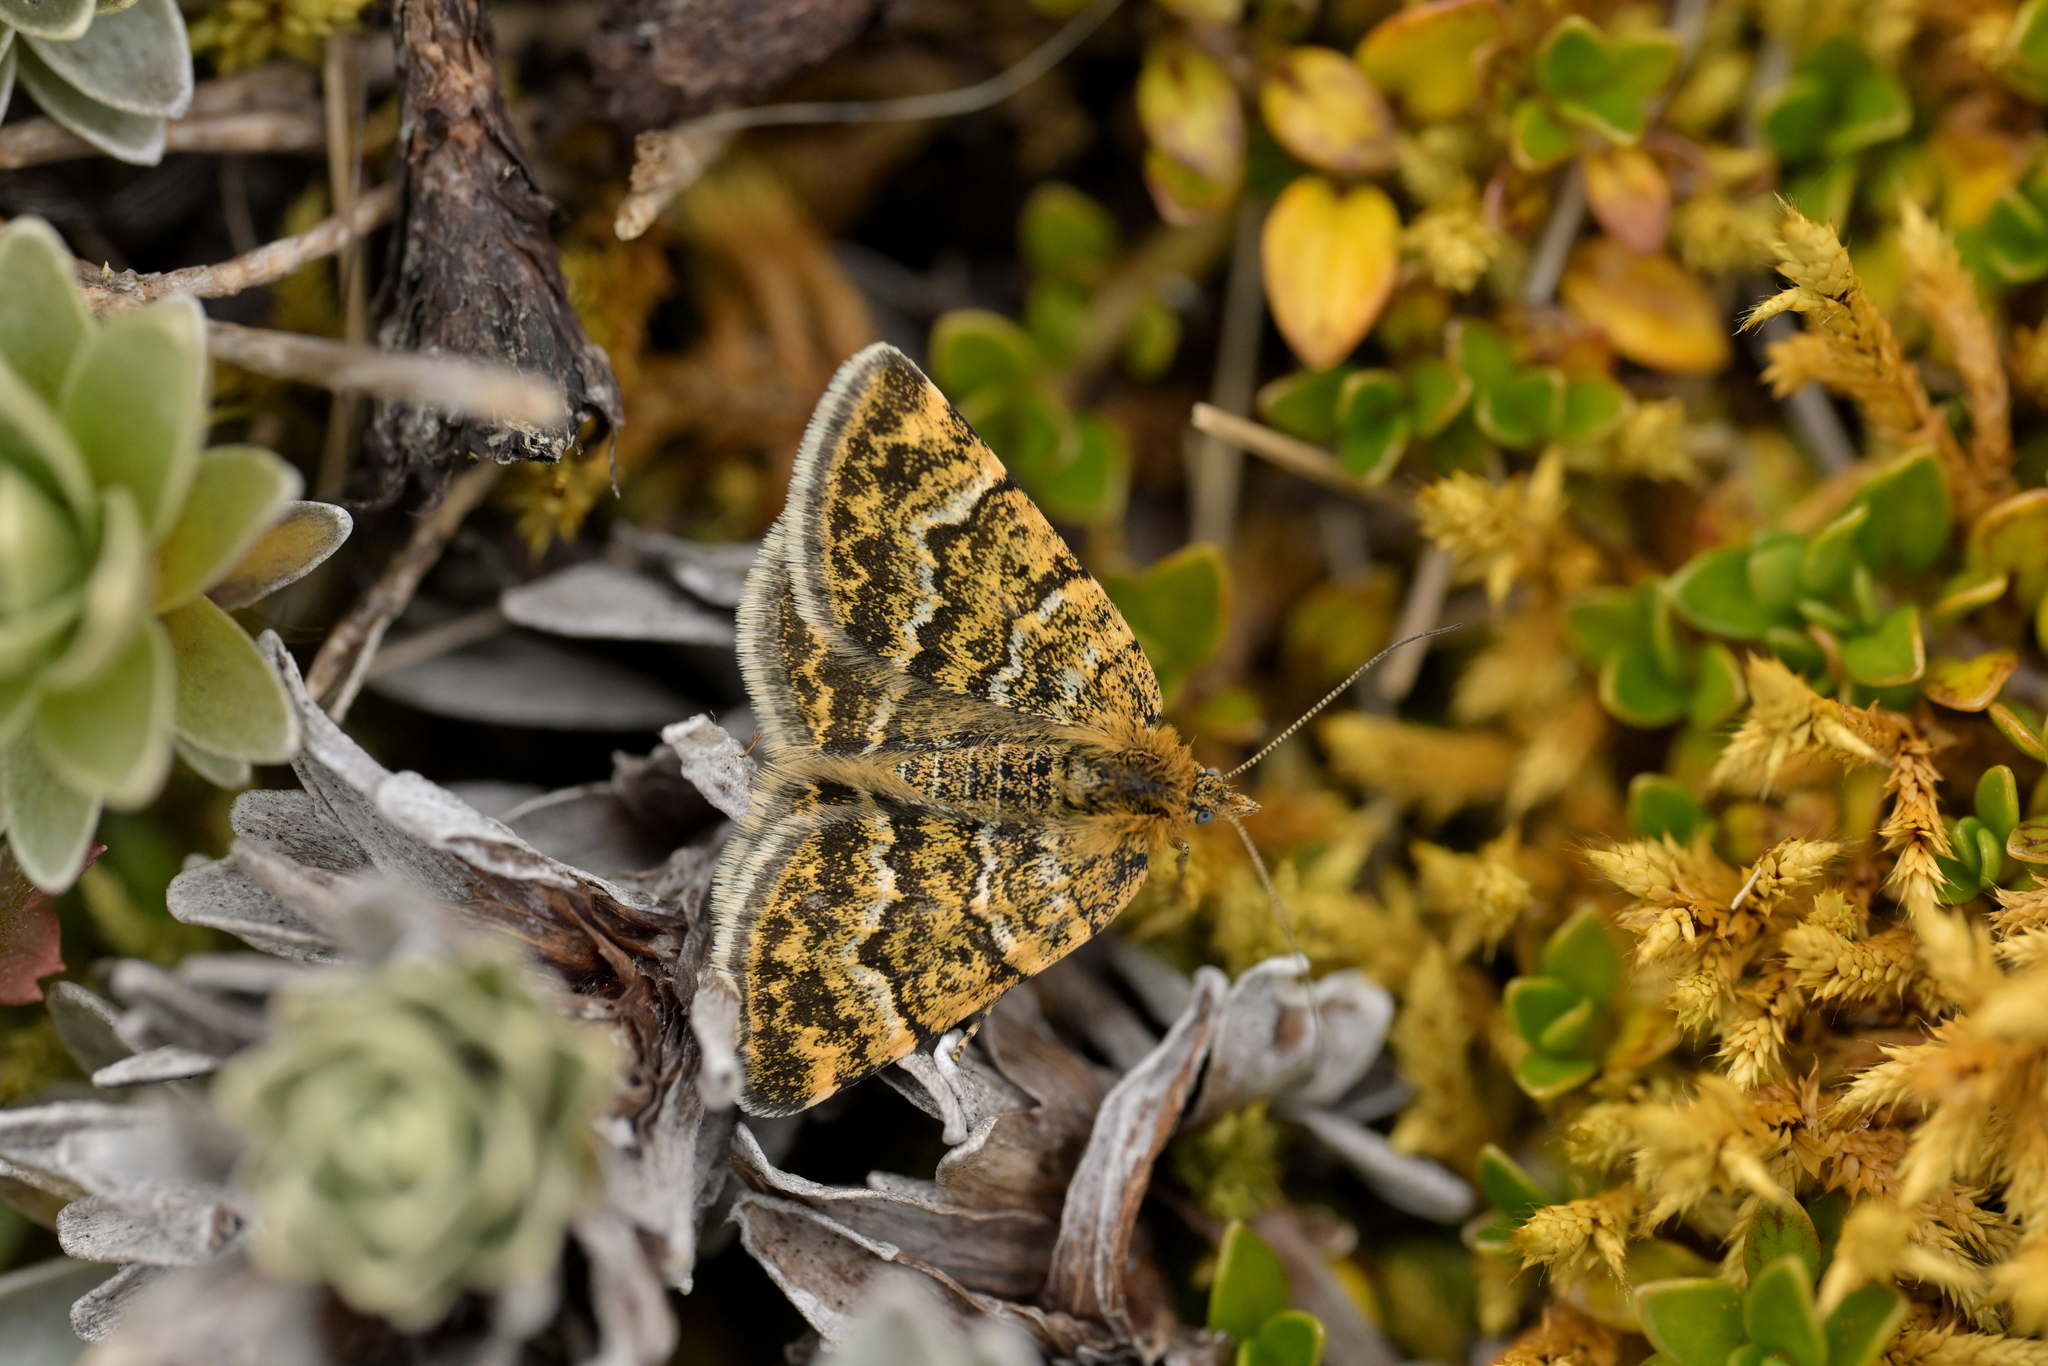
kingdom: Animalia
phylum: Arthropoda
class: Insecta
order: Lepidoptera
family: Geometridae
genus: Notoreas
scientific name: Notoreas atmogramma
